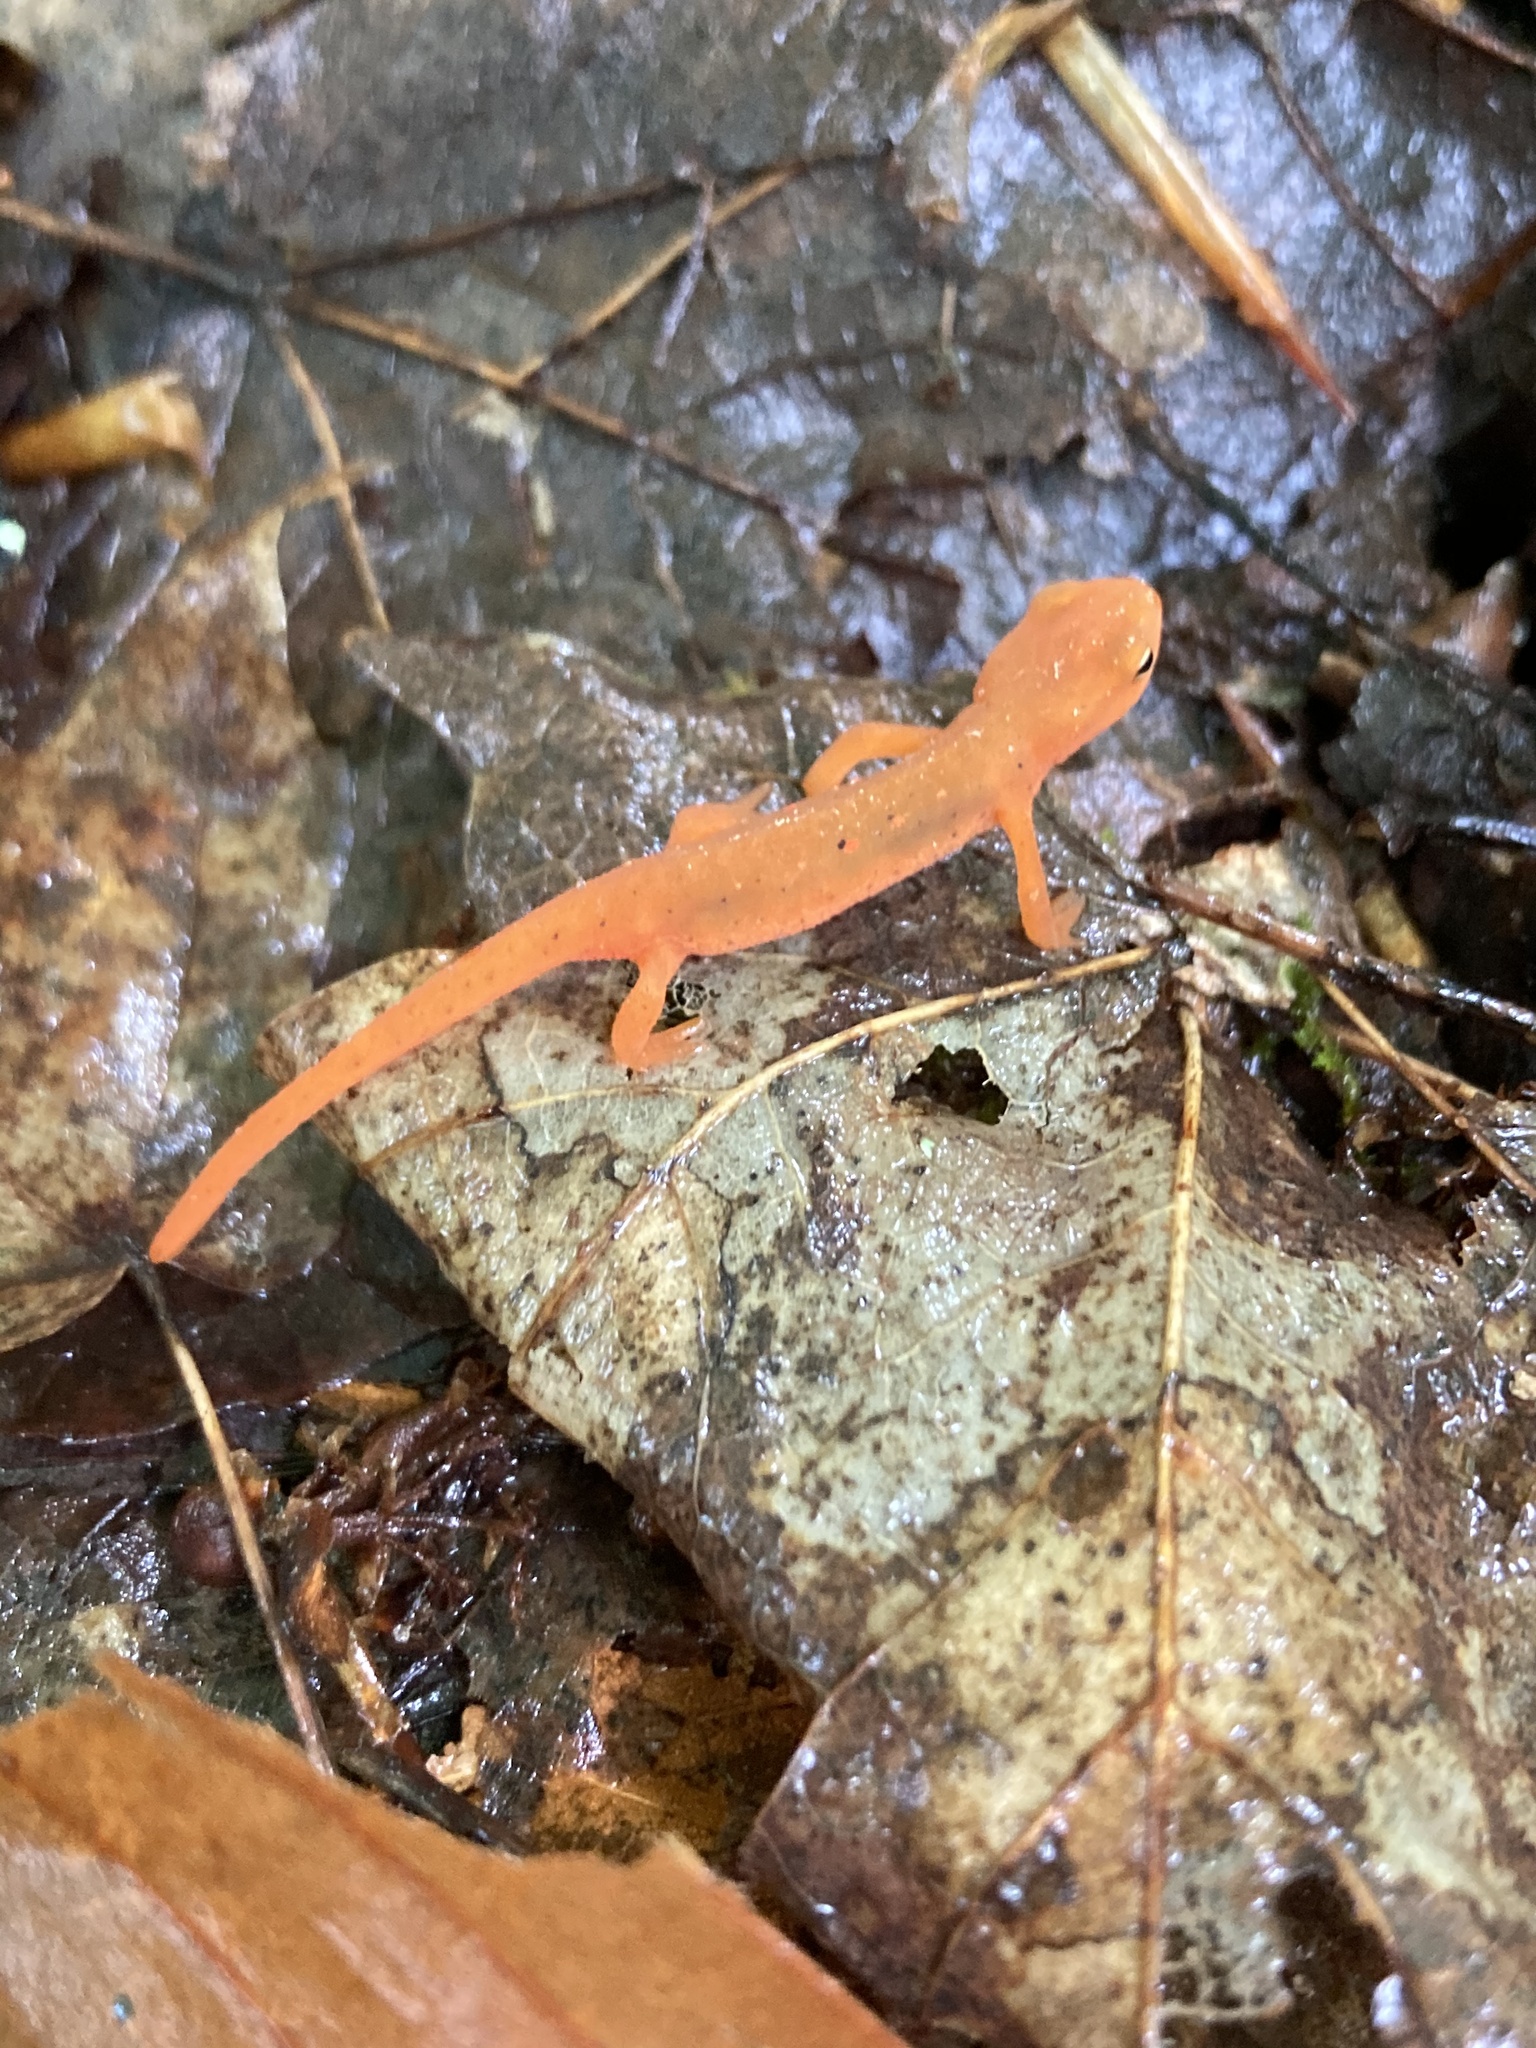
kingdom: Animalia
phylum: Chordata
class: Amphibia
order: Caudata
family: Salamandridae
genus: Notophthalmus
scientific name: Notophthalmus viridescens
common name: Eastern newt
